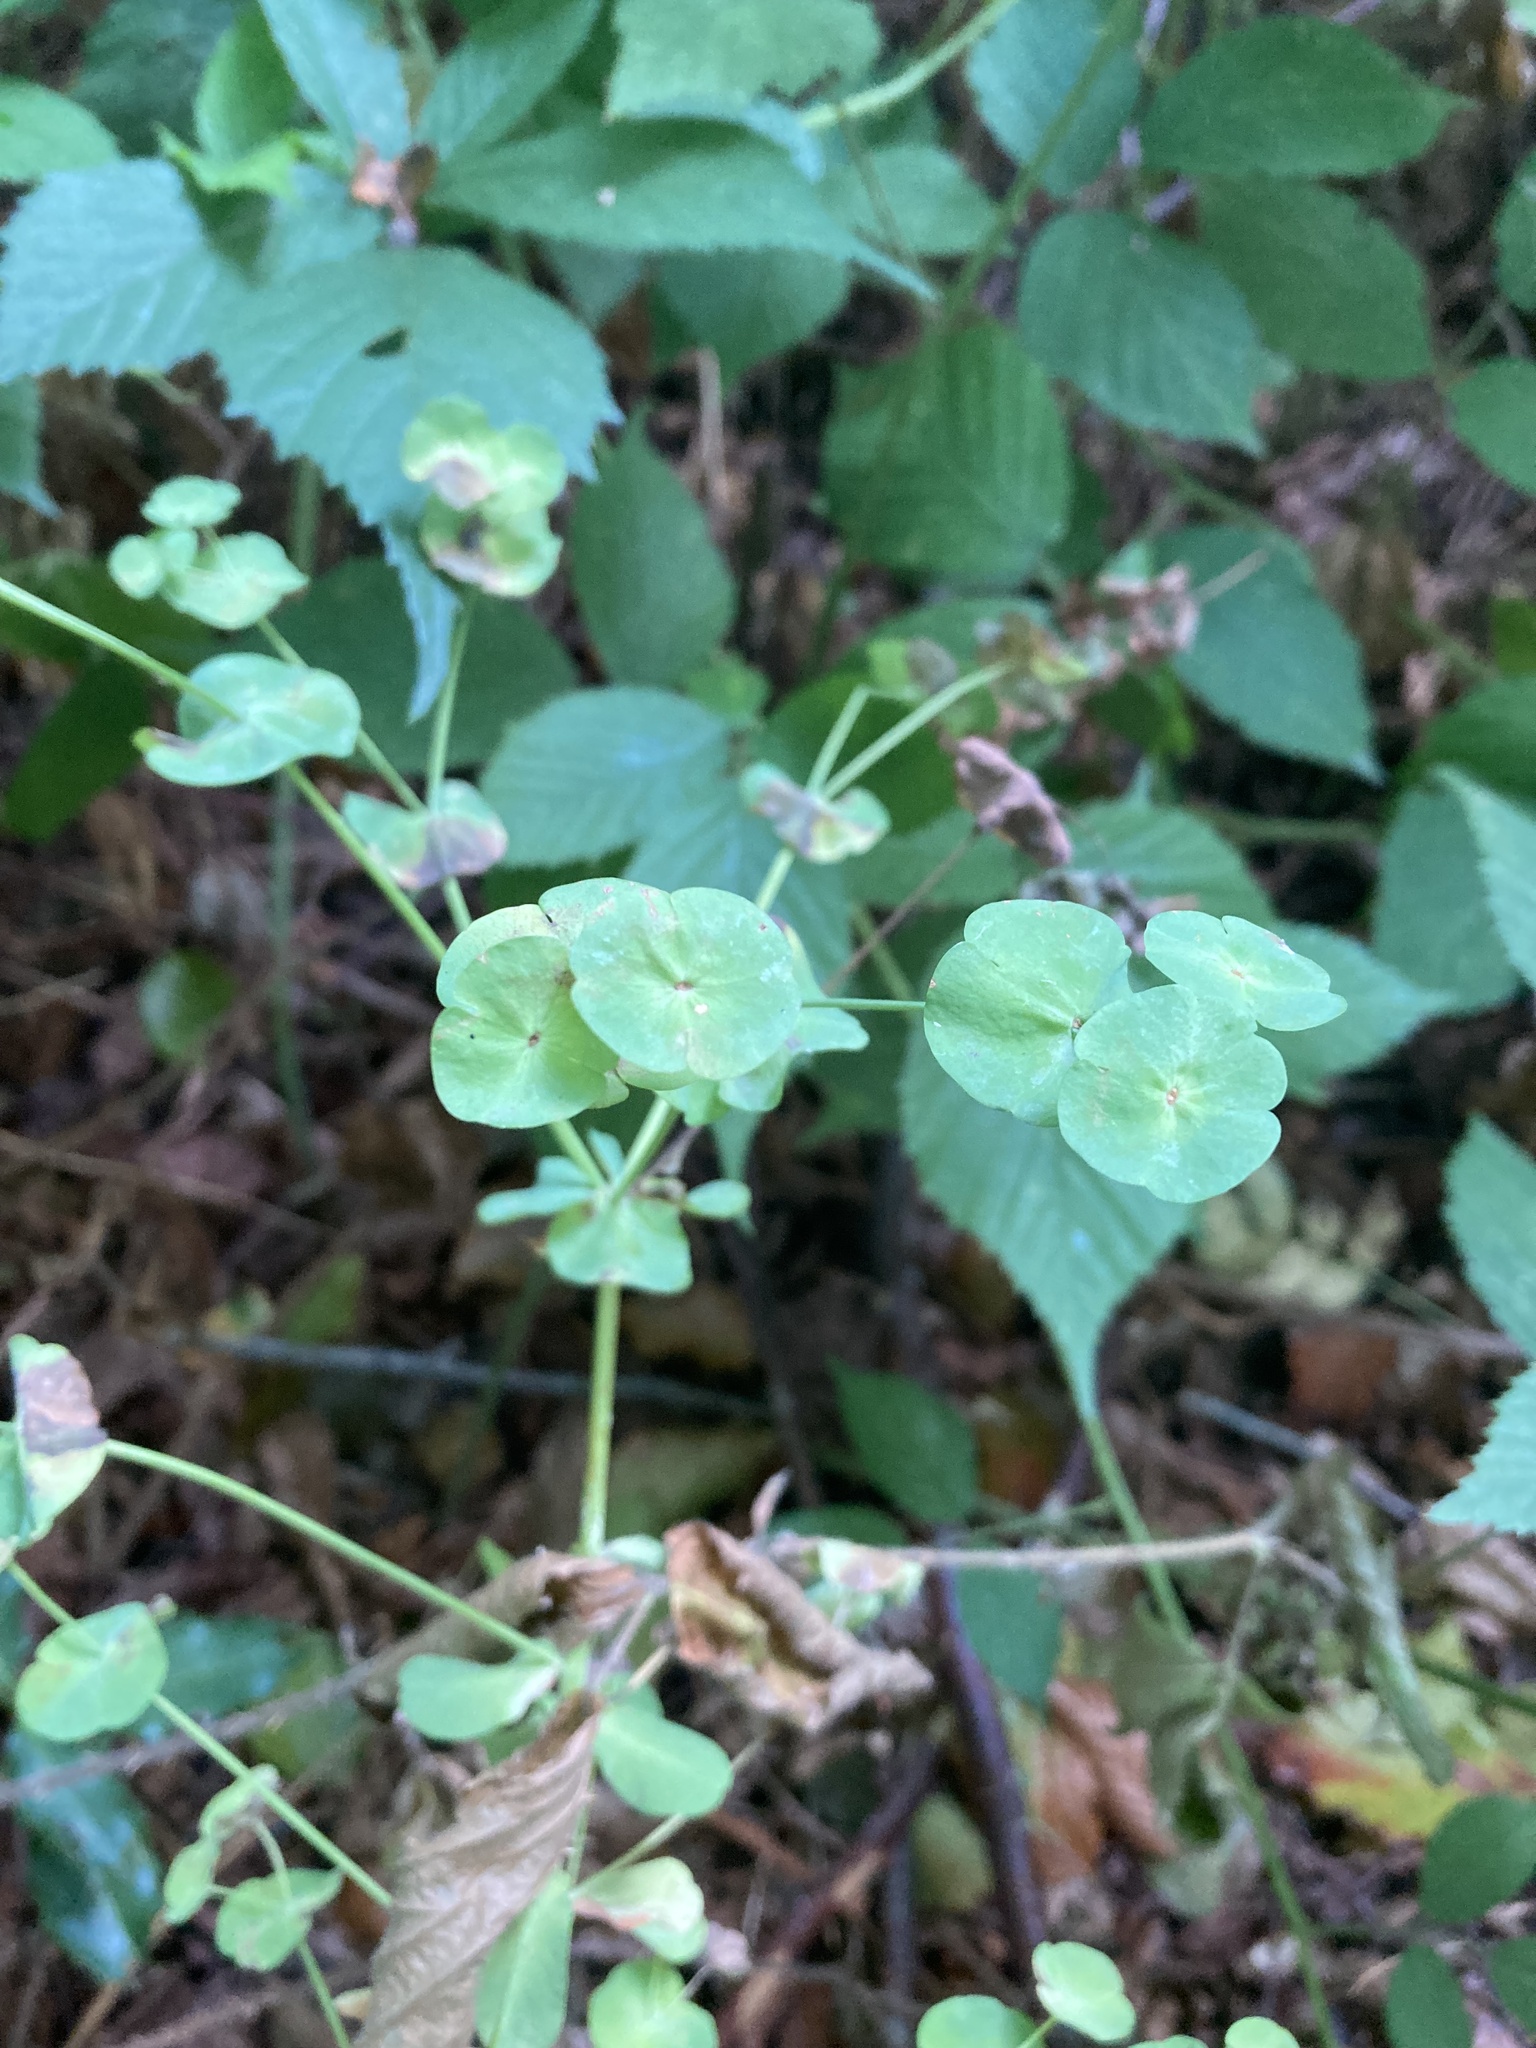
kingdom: Plantae
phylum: Tracheophyta
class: Magnoliopsida
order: Malpighiales
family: Euphorbiaceae
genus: Euphorbia
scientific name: Euphorbia amygdaloides
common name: Wood spurge
